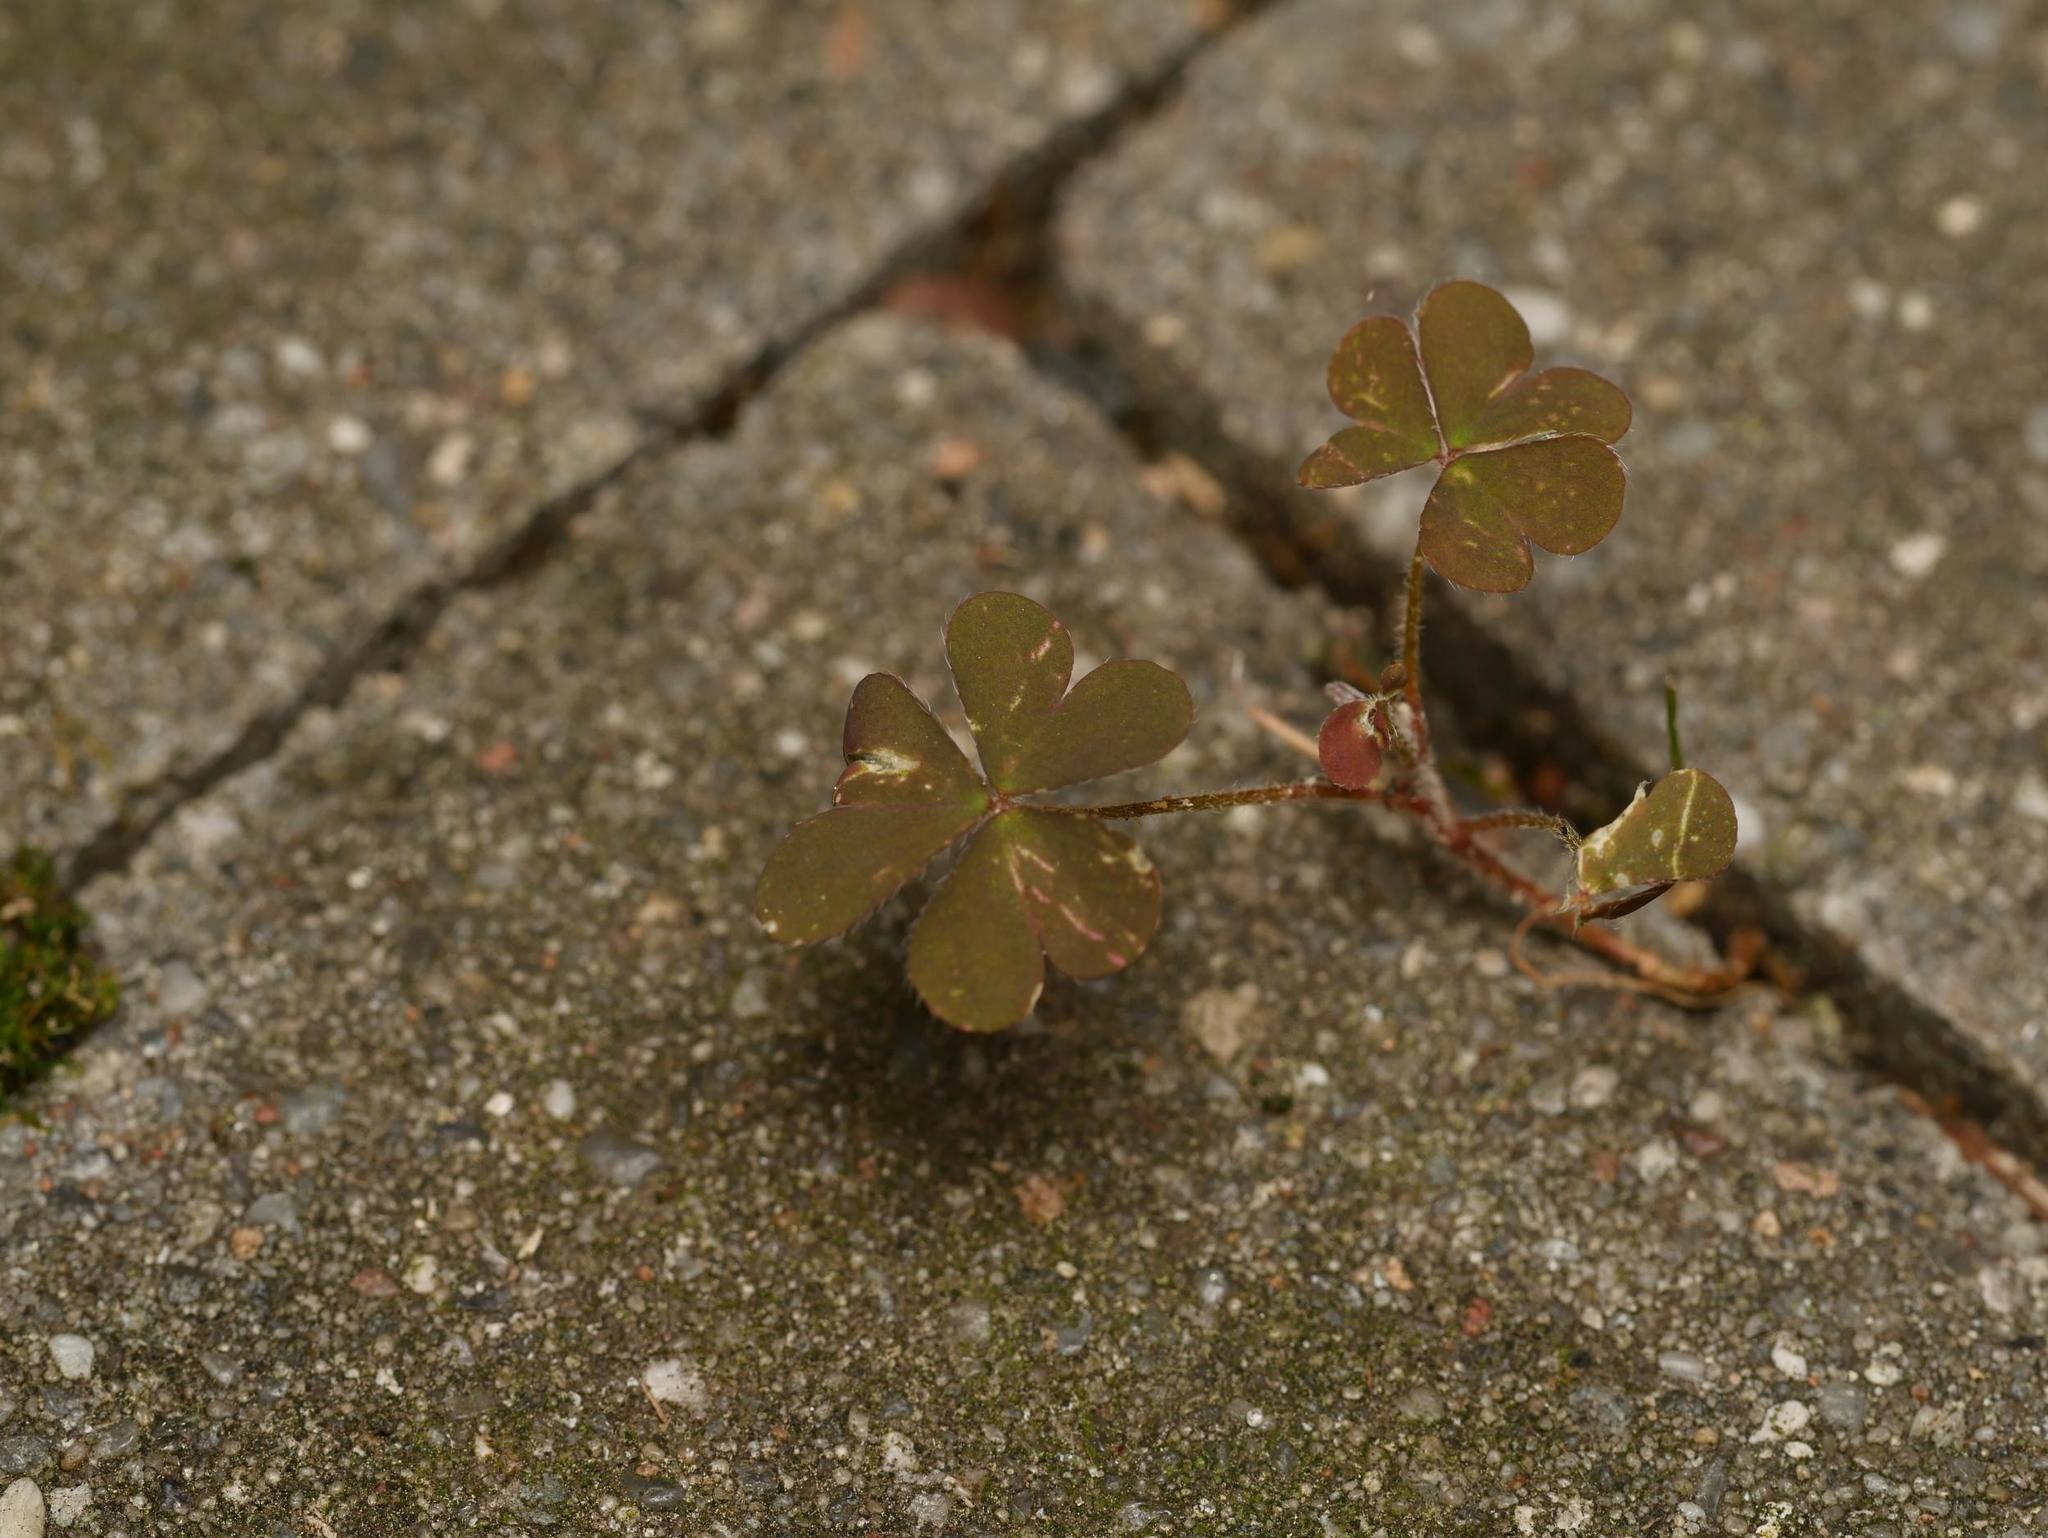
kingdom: Plantae
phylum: Tracheophyta
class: Magnoliopsida
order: Oxalidales
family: Oxalidaceae
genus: Oxalis
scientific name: Oxalis corniculata
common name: Procumbent yellow-sorrel
